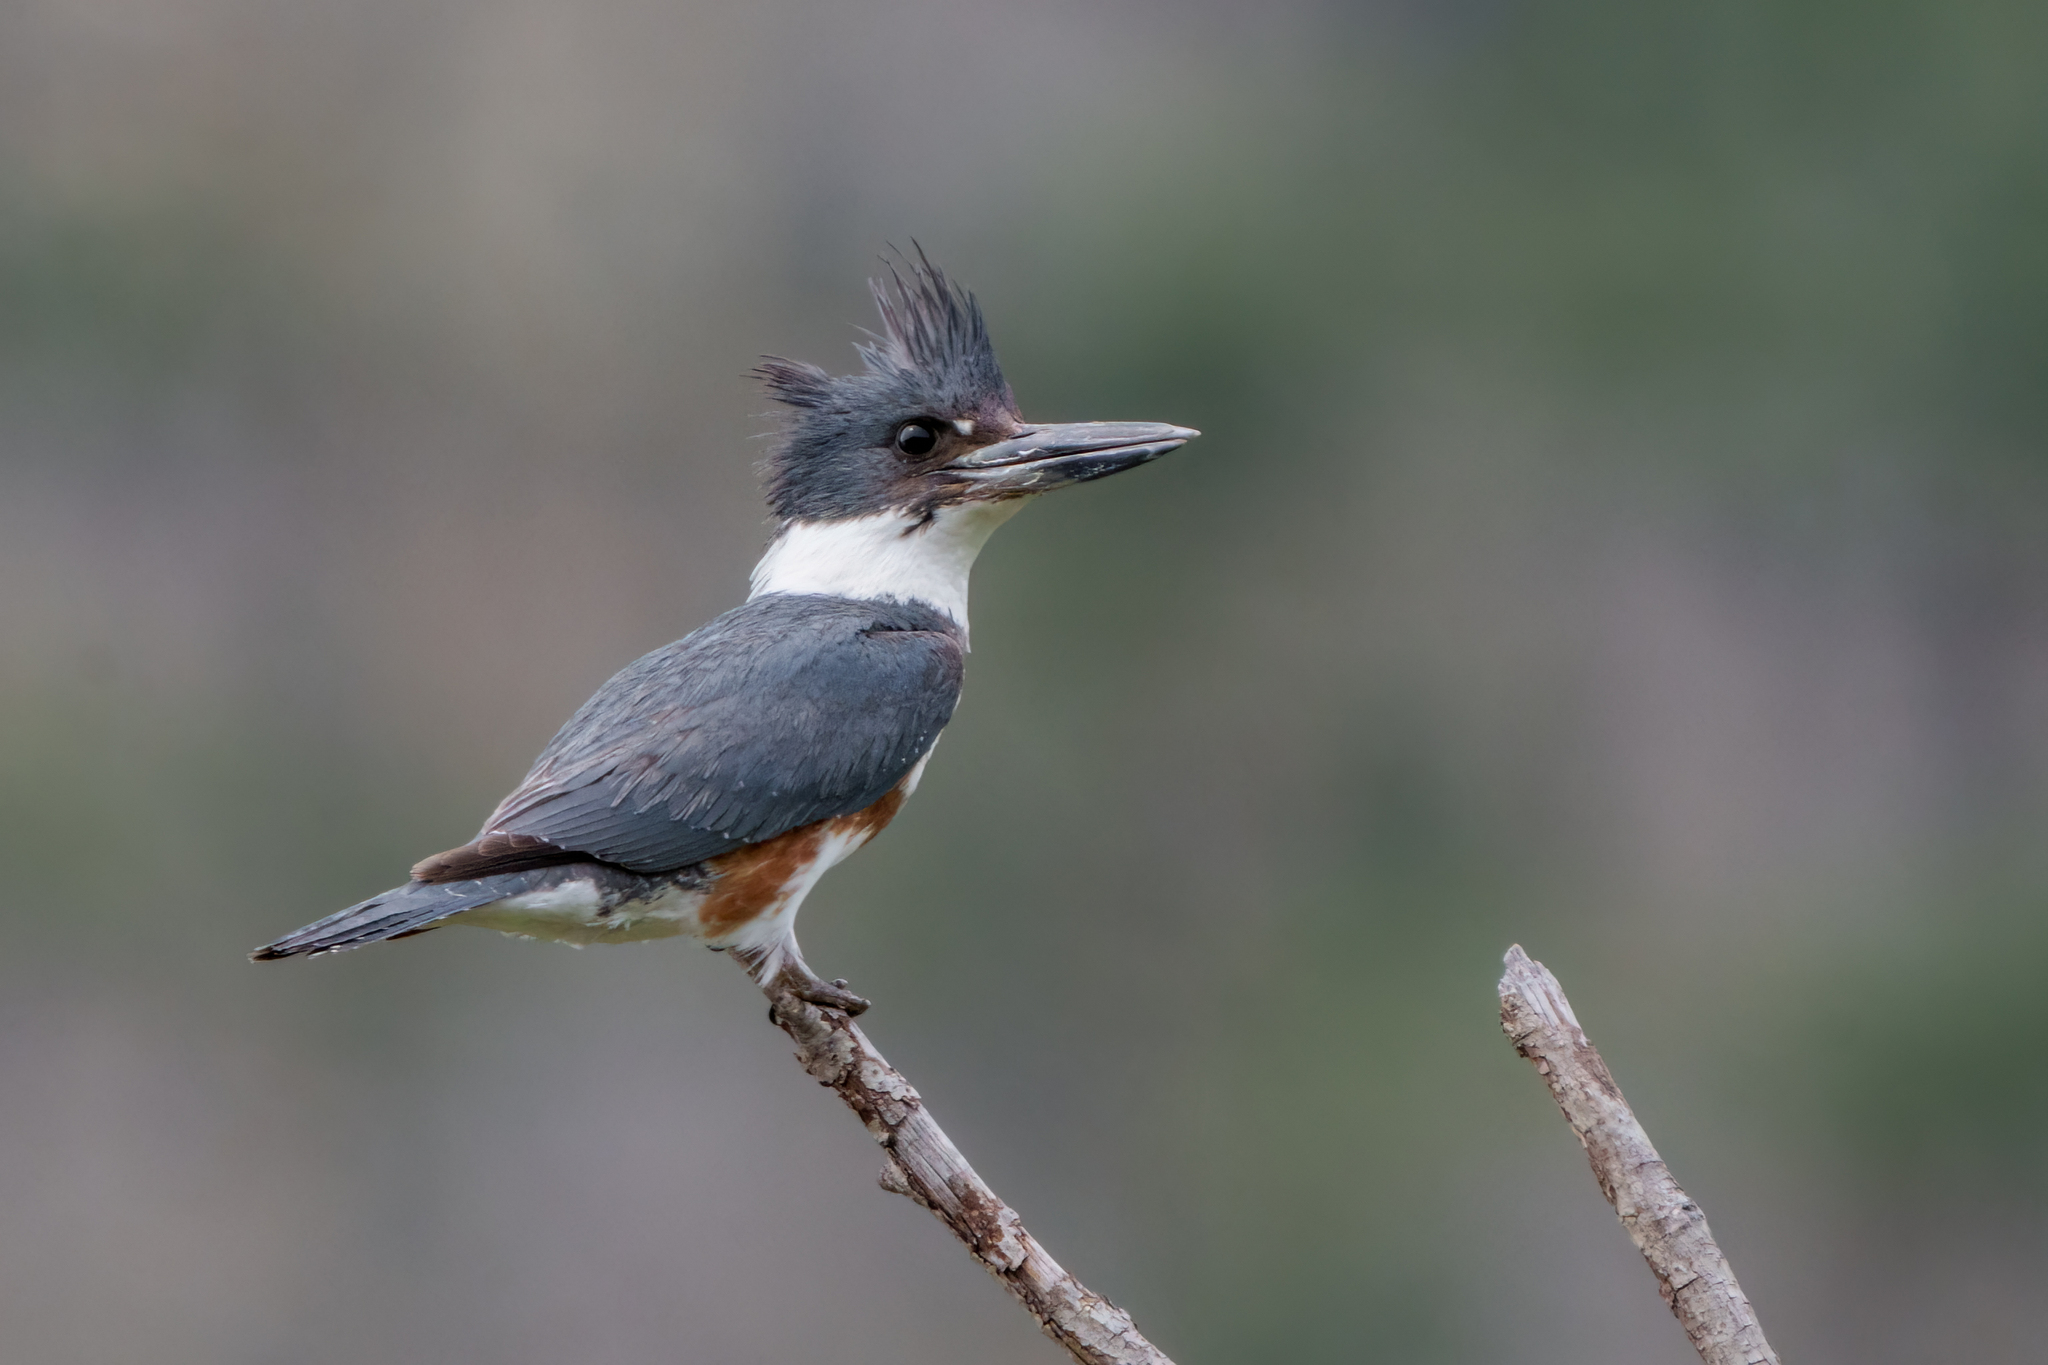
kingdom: Animalia
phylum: Chordata
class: Aves
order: Coraciiformes
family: Alcedinidae
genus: Megaceryle
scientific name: Megaceryle alcyon
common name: Belted kingfisher
